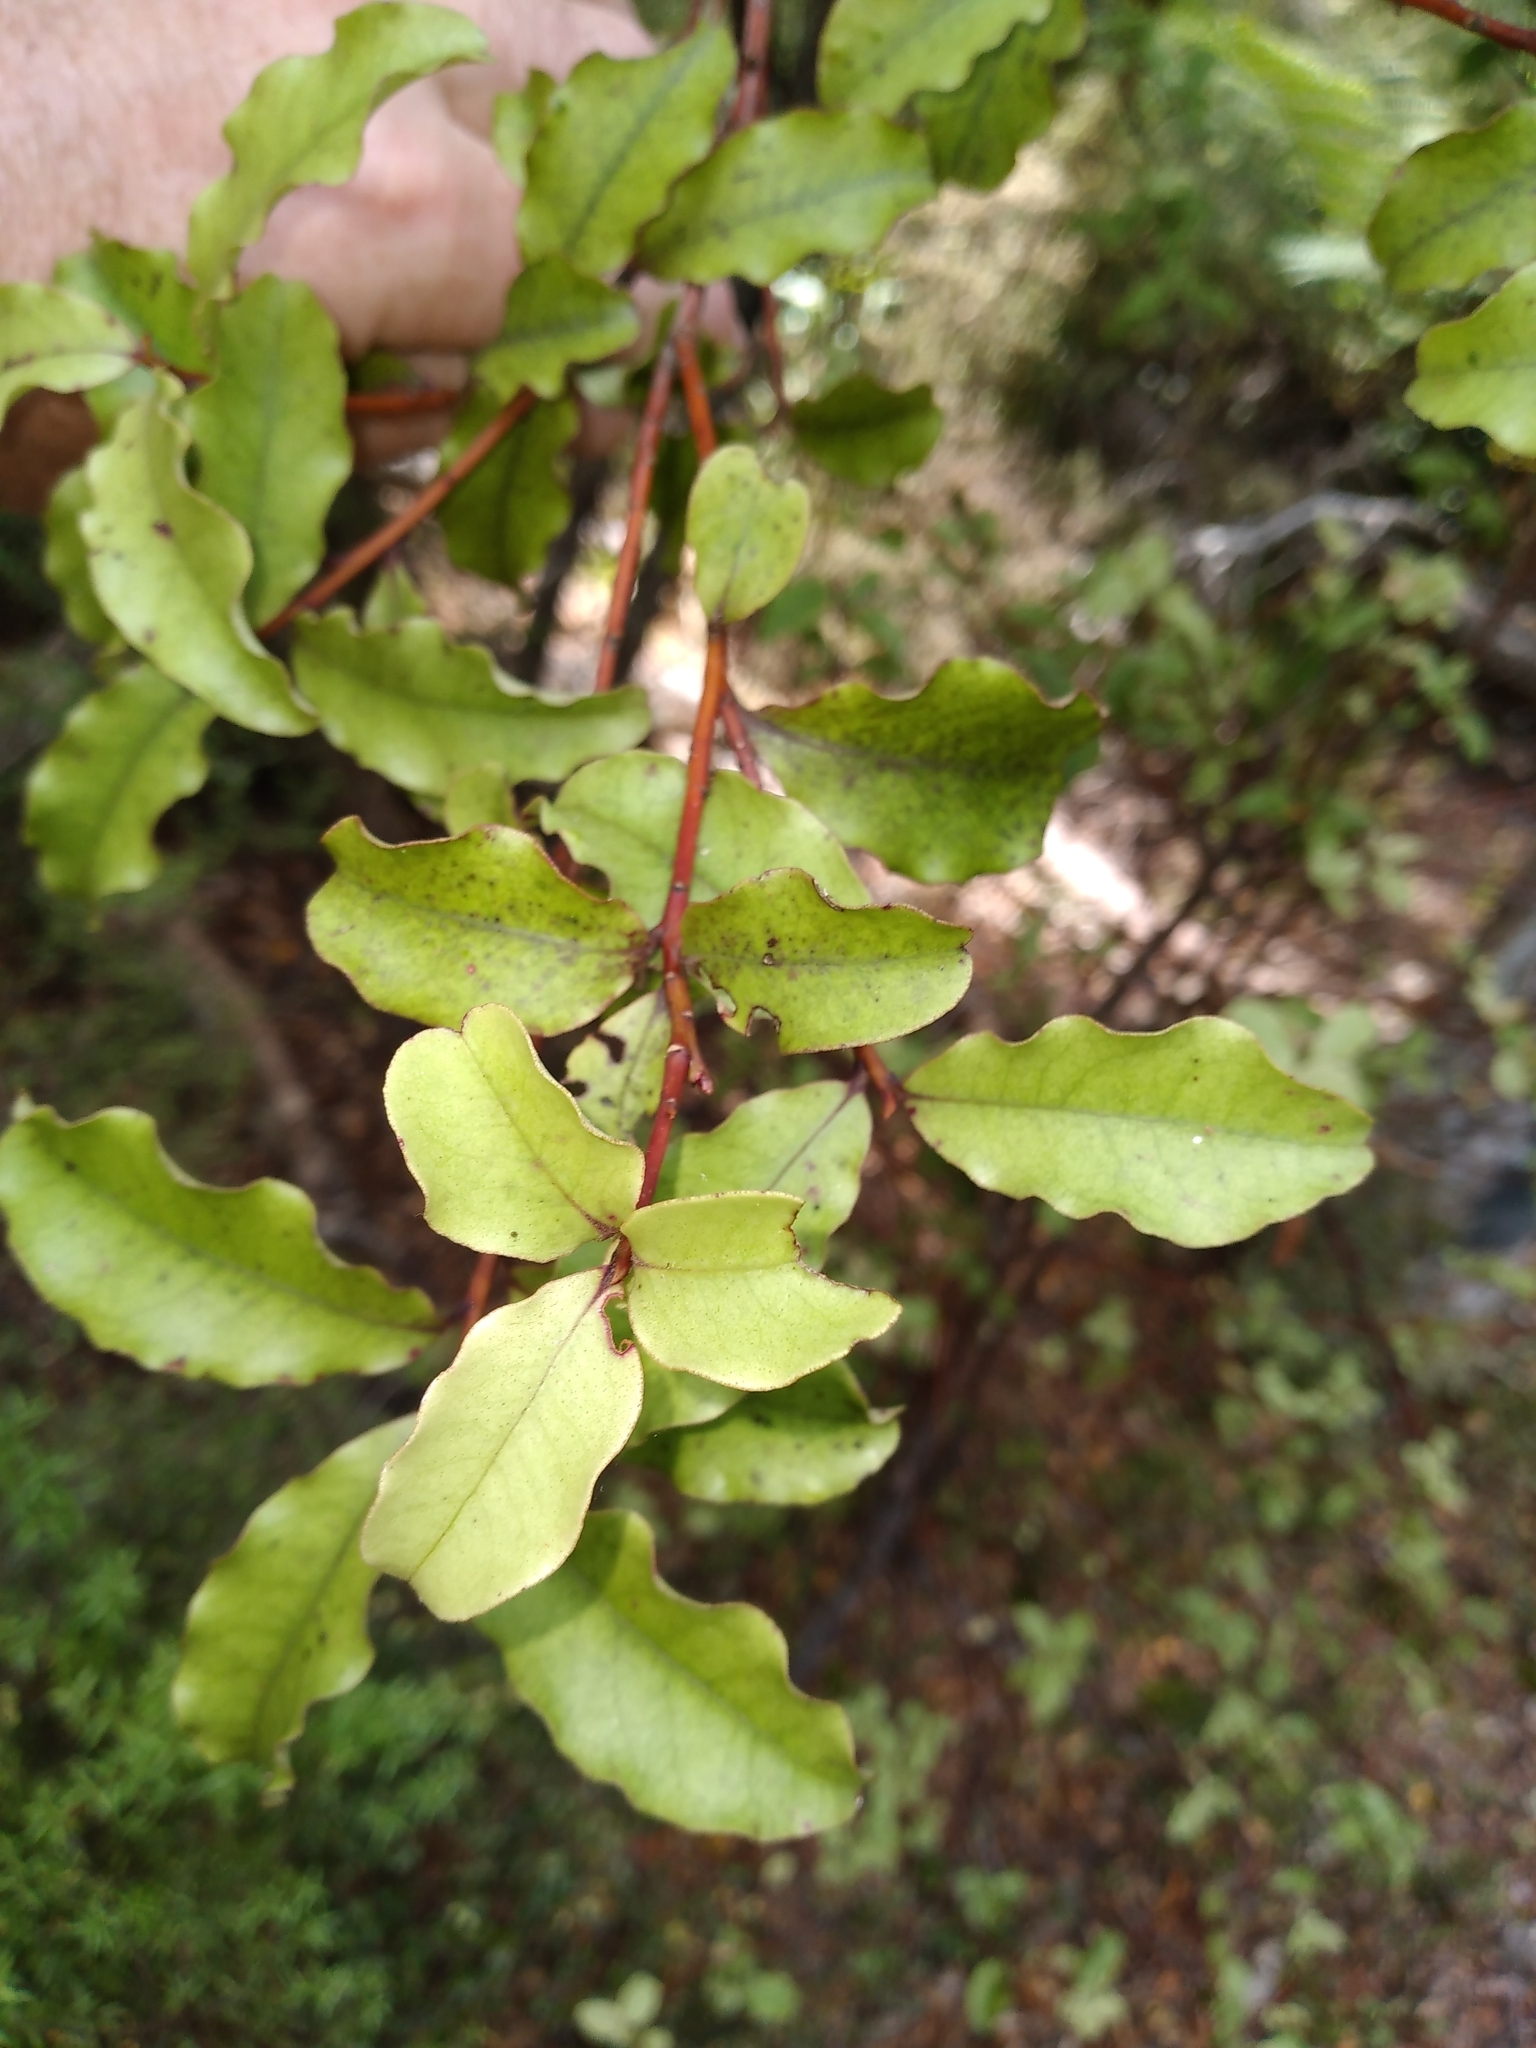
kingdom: Plantae
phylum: Tracheophyta
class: Magnoliopsida
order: Ericales
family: Primulaceae
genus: Myrsine
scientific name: Myrsine australis
